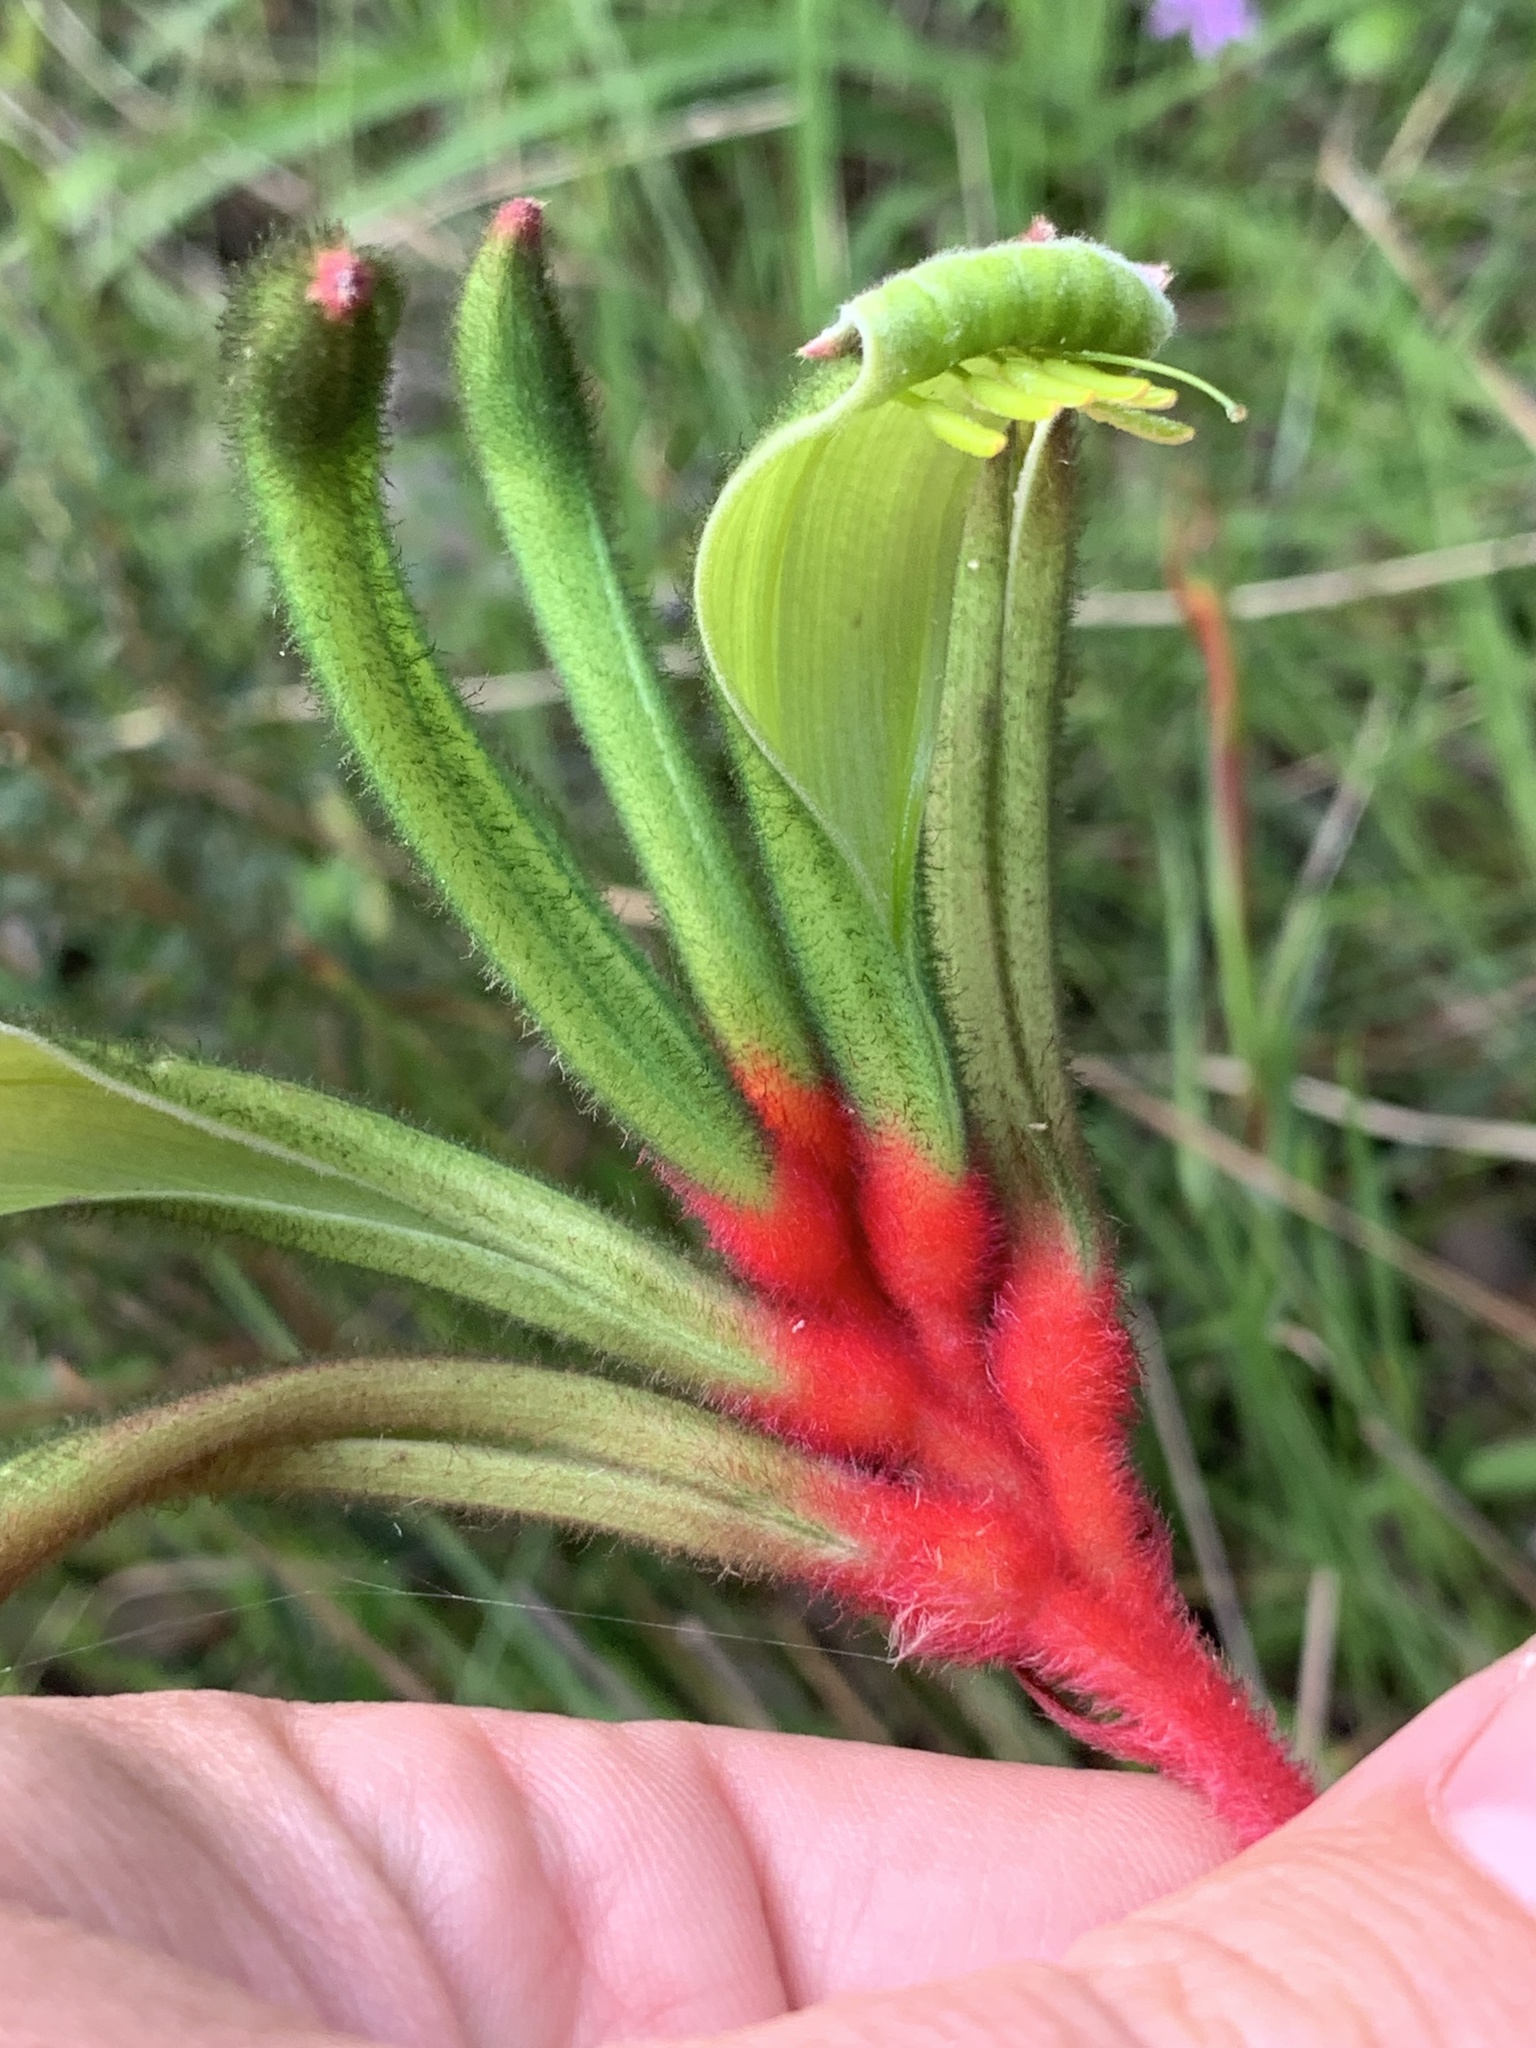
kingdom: Plantae
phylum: Tracheophyta
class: Liliopsida
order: Commelinales
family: Haemodoraceae
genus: Anigozanthos
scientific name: Anigozanthos manglesii
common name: Mangles's kangaroo-paw
